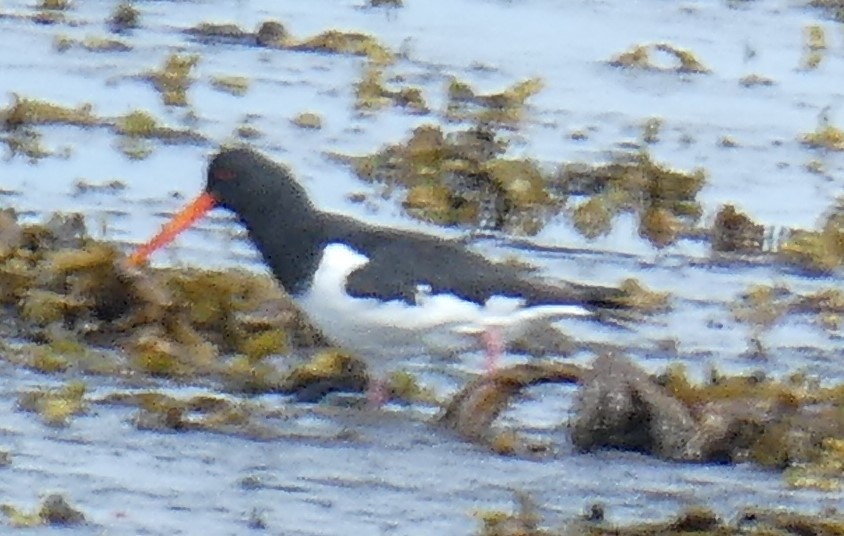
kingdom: Animalia
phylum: Chordata
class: Aves
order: Charadriiformes
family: Haematopodidae
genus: Haematopus
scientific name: Haematopus ostralegus
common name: Eurasian oystercatcher
